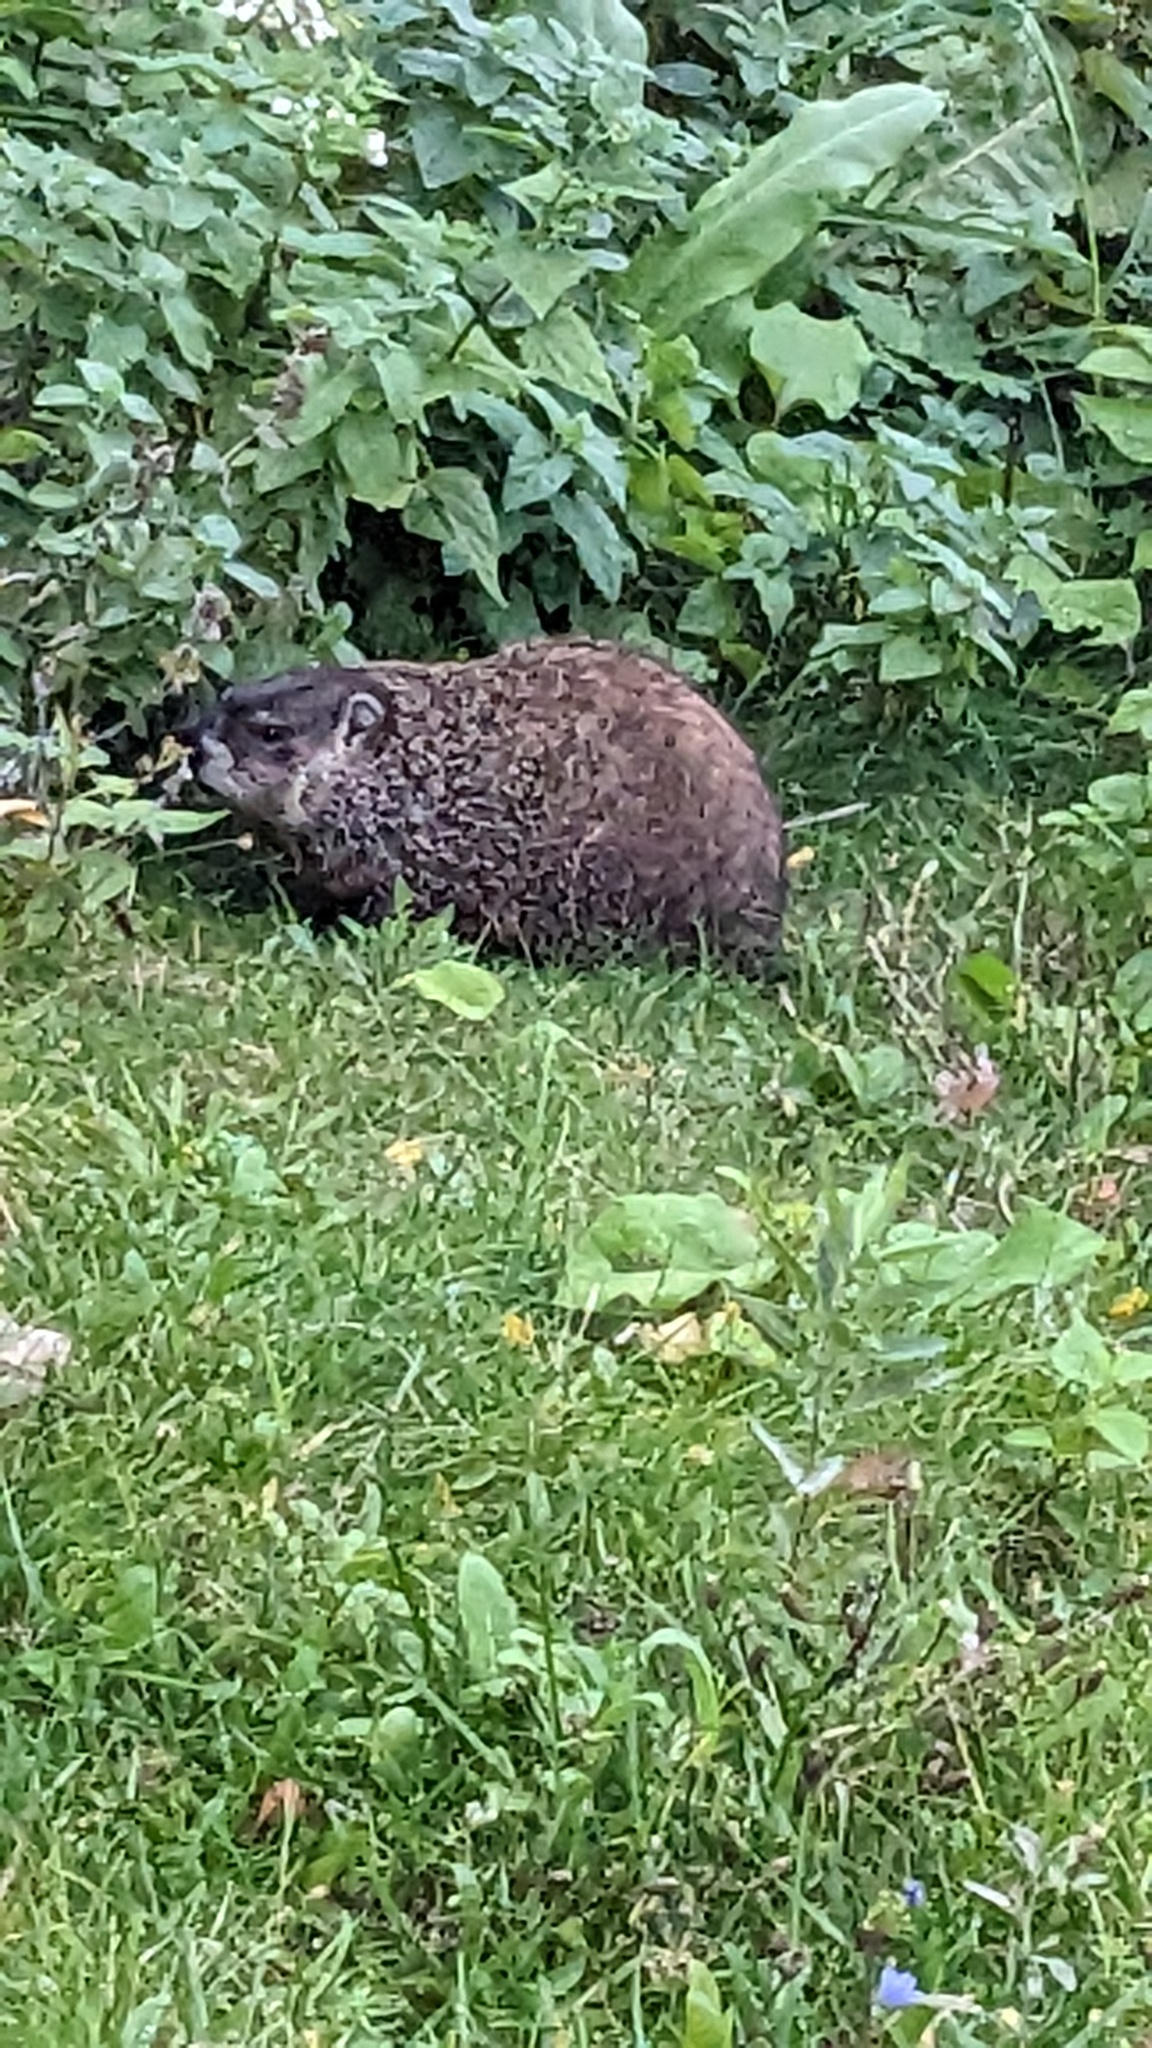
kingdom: Animalia
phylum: Chordata
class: Mammalia
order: Rodentia
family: Sciuridae
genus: Marmota
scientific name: Marmota monax
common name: Groundhog
